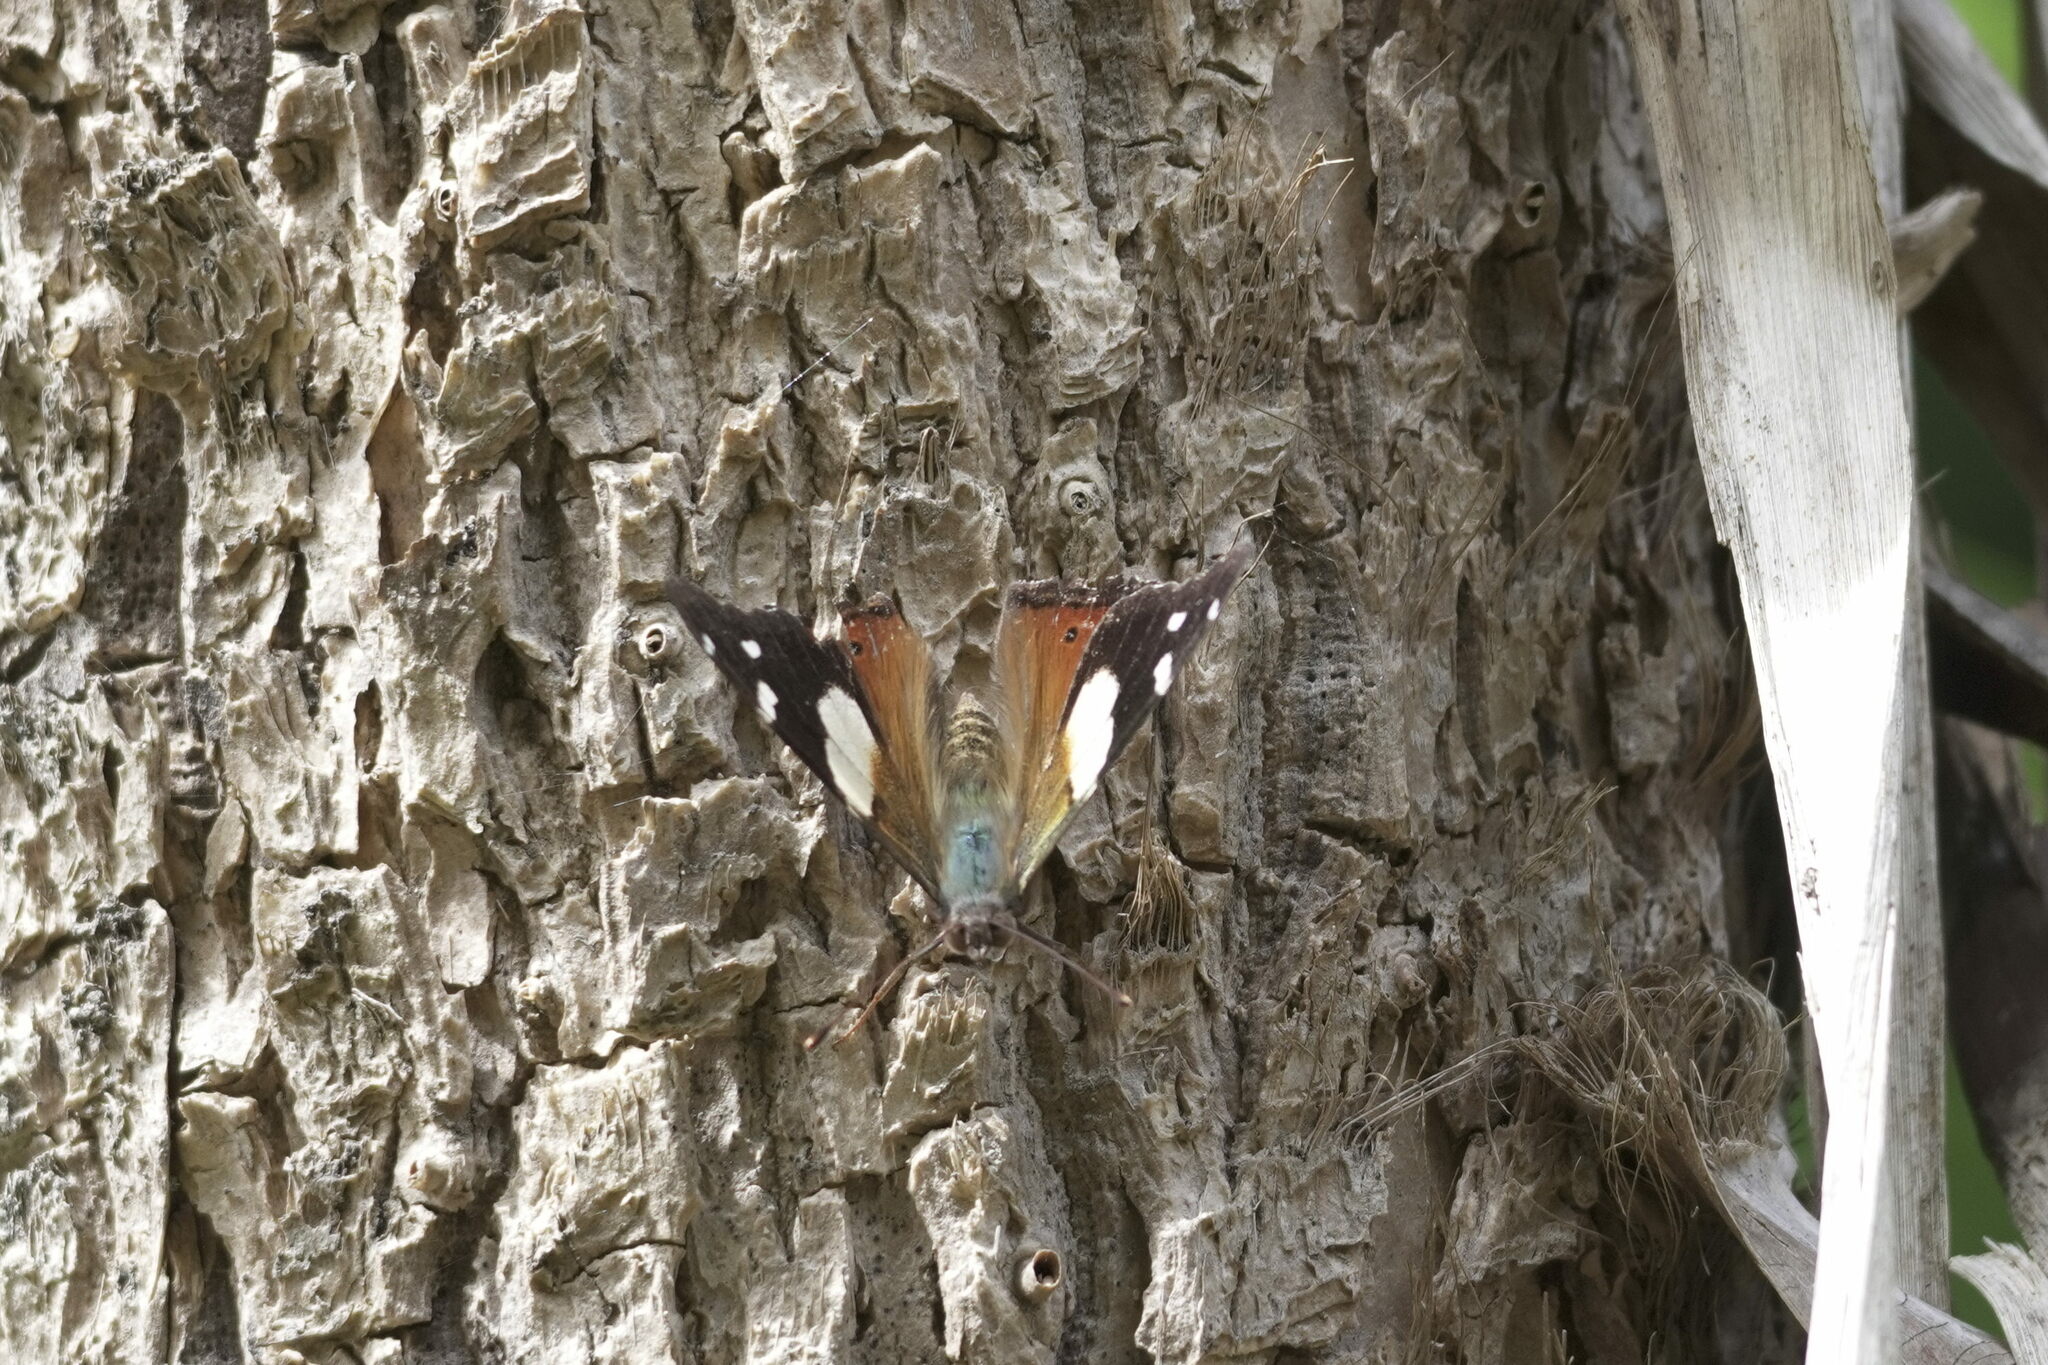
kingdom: Animalia
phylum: Arthropoda
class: Insecta
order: Lepidoptera
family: Nymphalidae
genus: Vanessa
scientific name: Vanessa itea
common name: Yellow admiral
